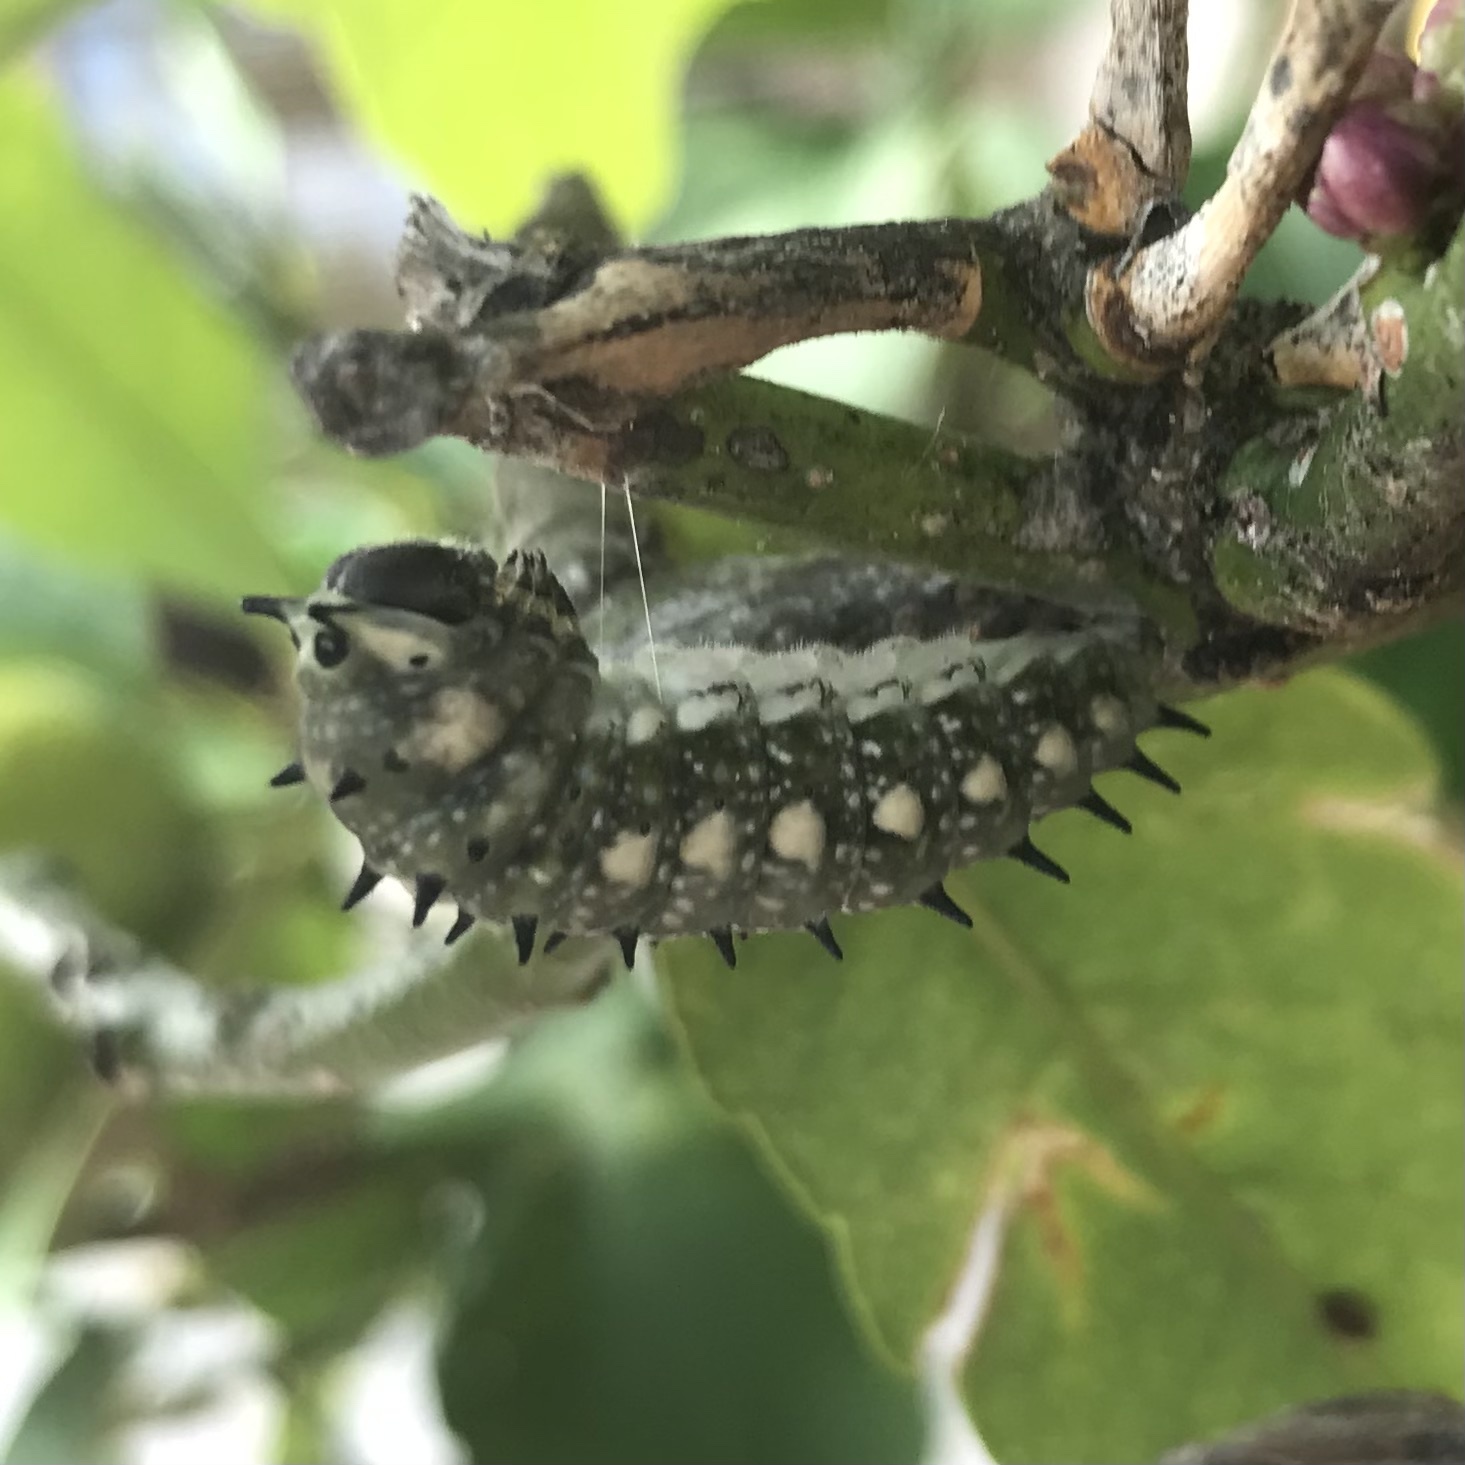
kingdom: Animalia
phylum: Arthropoda
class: Insecta
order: Lepidoptera
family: Papilionidae
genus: Papilio
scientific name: Papilio anactus
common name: Dingy swallowtail
